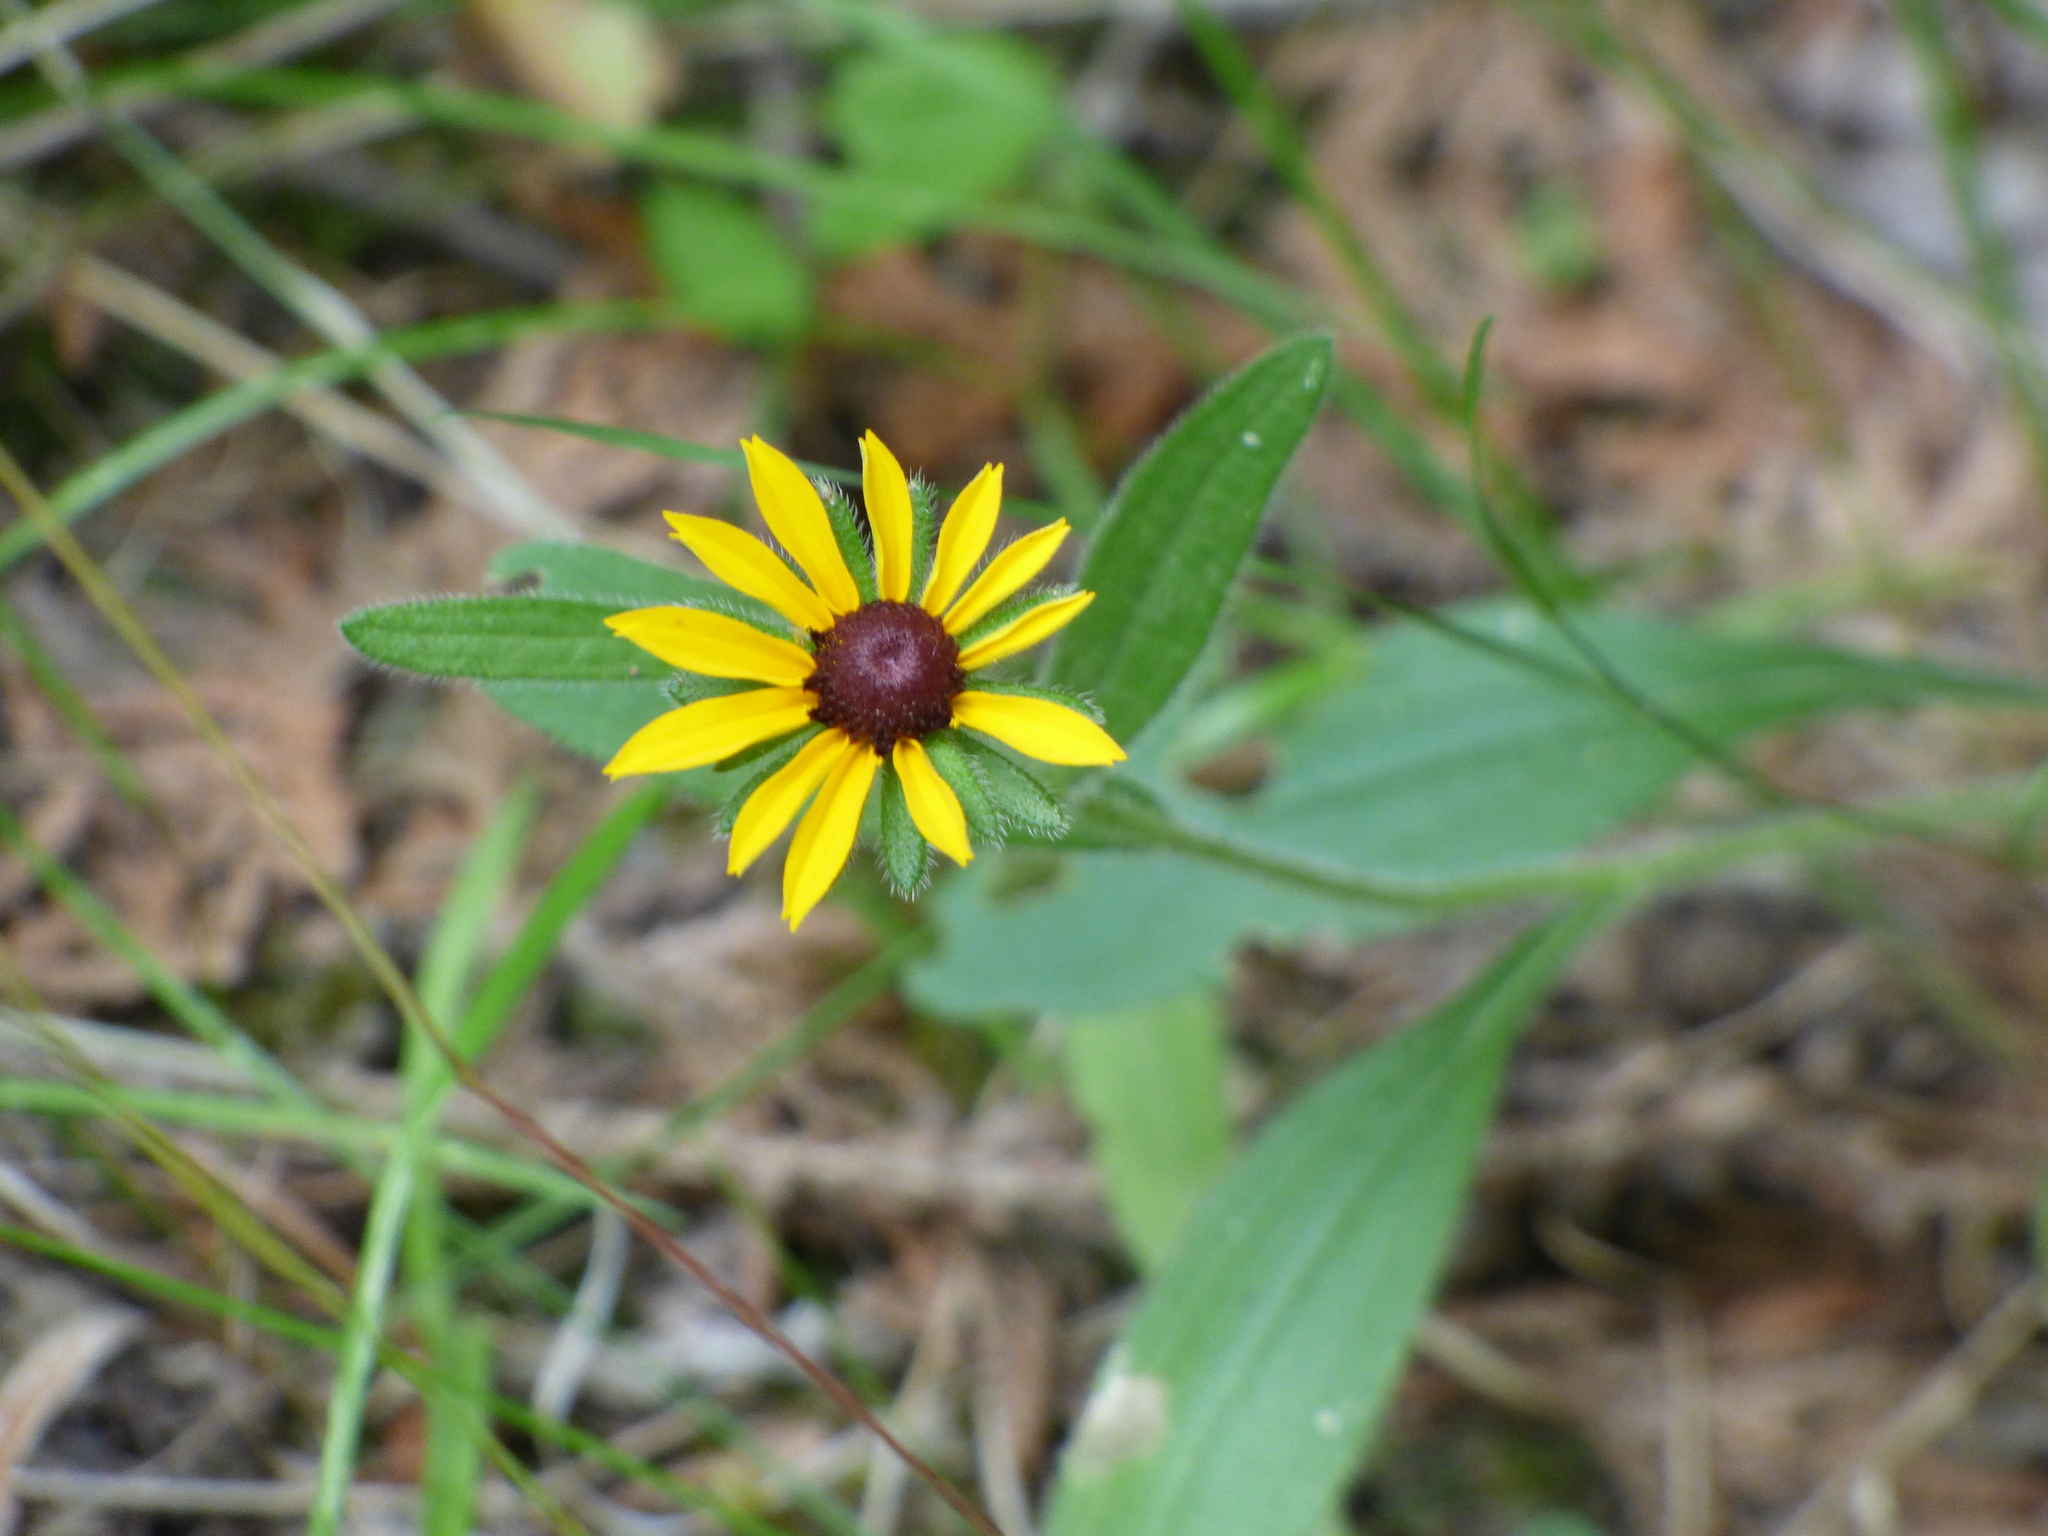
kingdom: Plantae
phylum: Tracheophyta
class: Magnoliopsida
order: Asterales
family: Asteraceae
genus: Rudbeckia
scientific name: Rudbeckia hirta
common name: Black-eyed-susan
